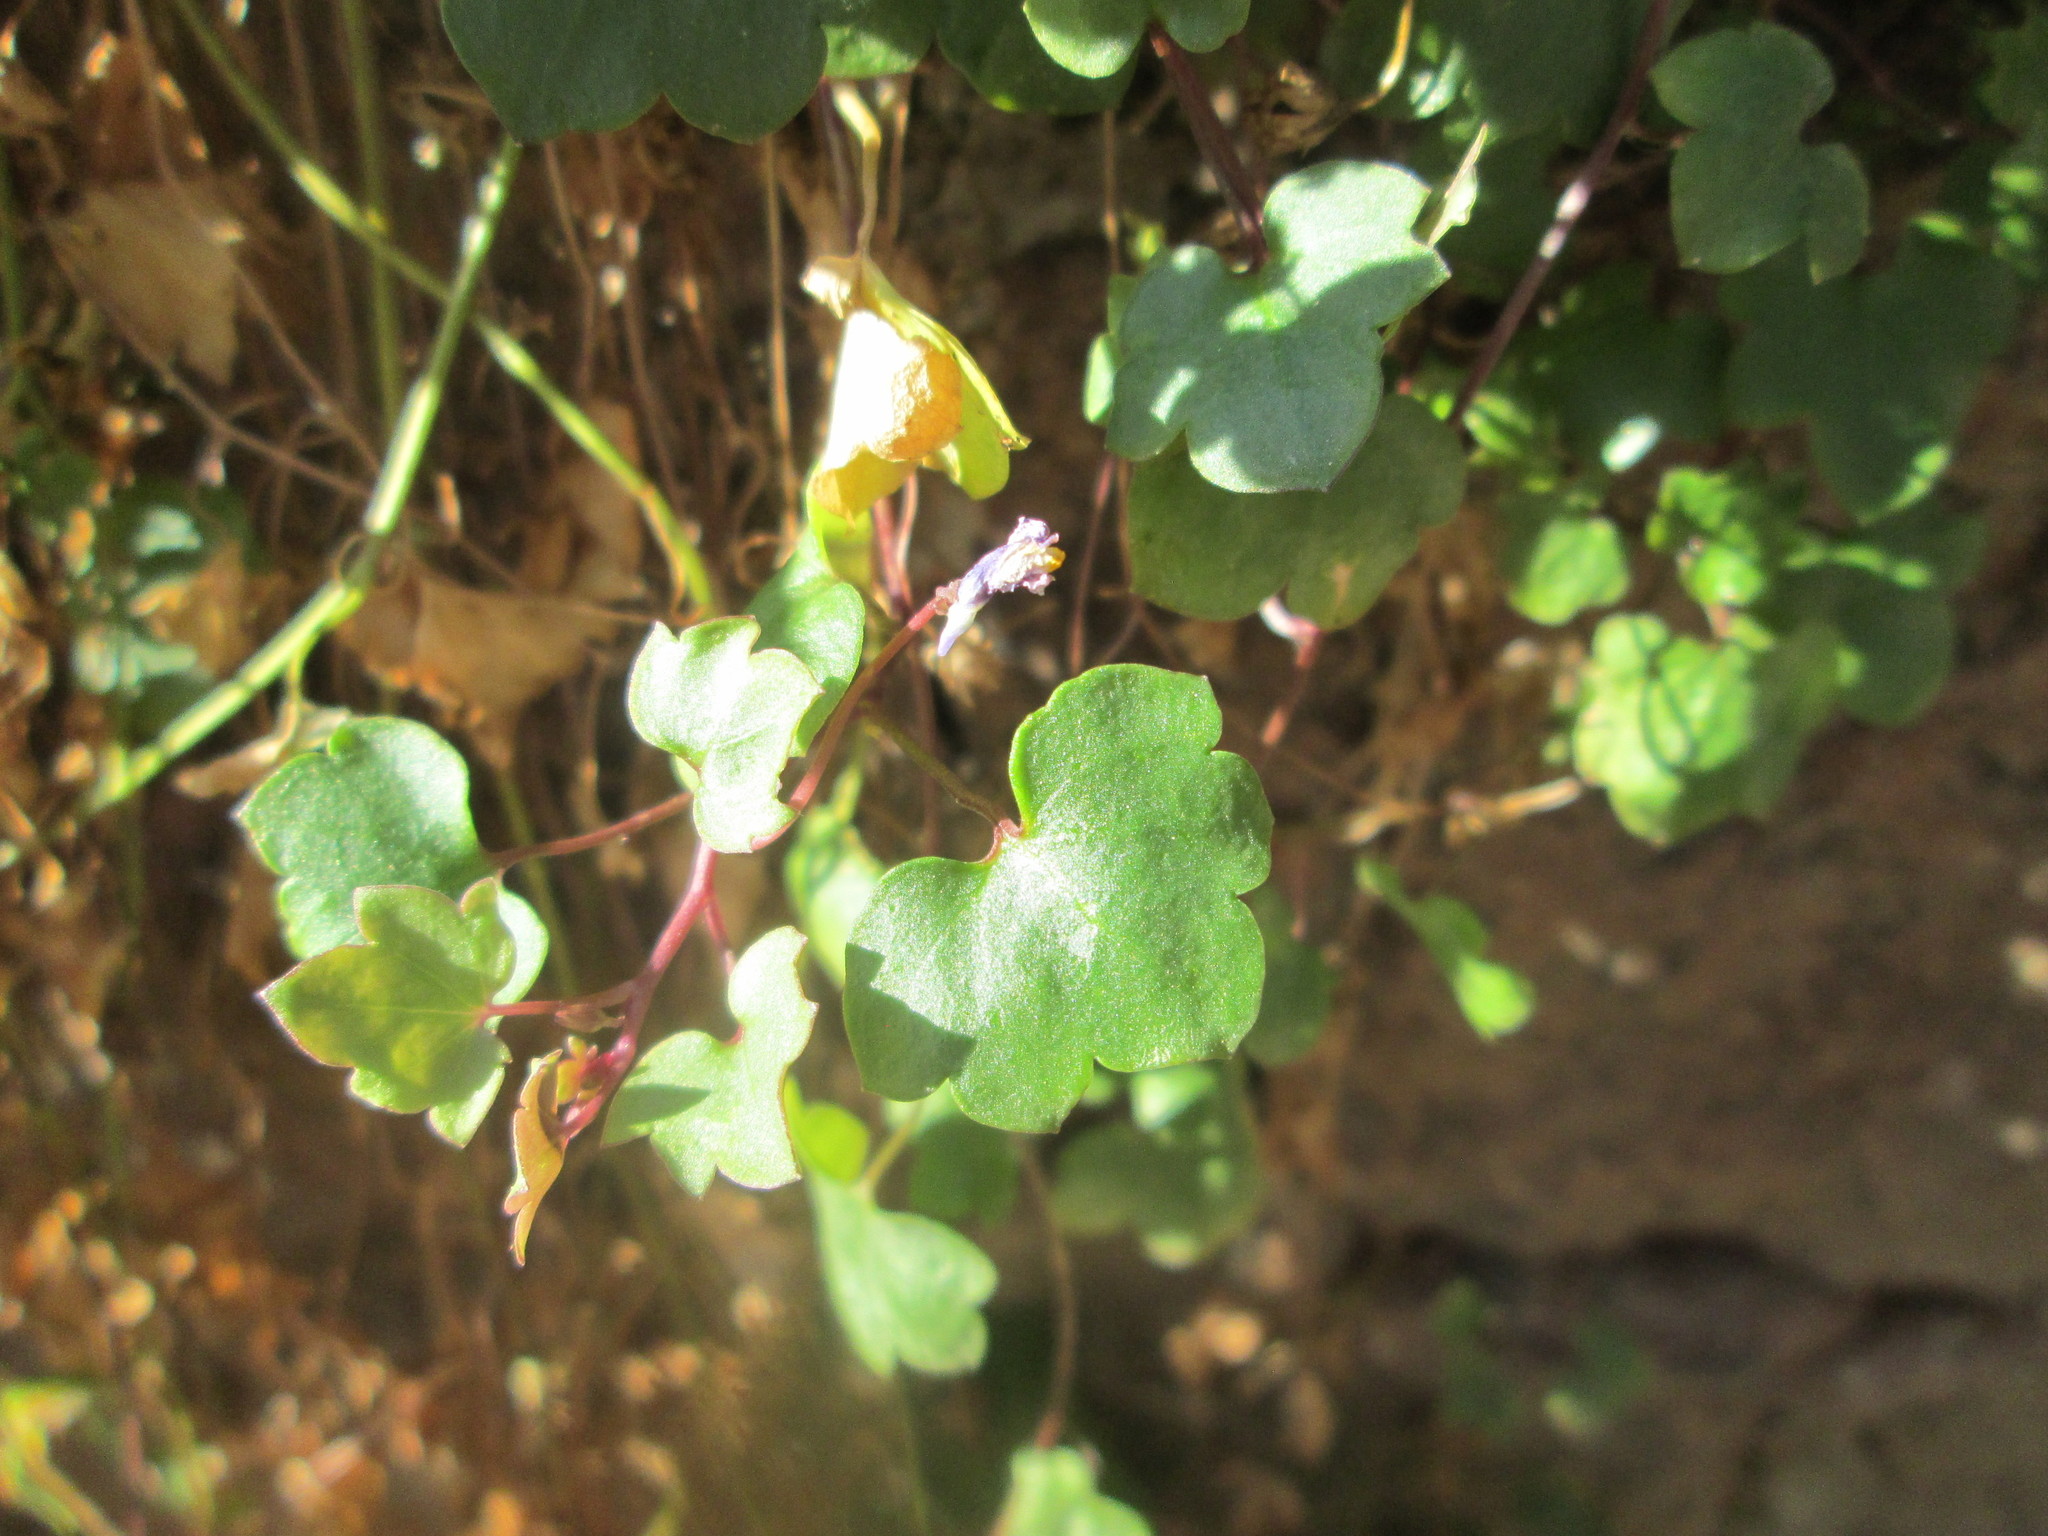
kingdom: Plantae
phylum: Tracheophyta
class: Magnoliopsida
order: Lamiales
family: Plantaginaceae
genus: Cymbalaria
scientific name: Cymbalaria muralis
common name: Ivy-leaved toadflax
